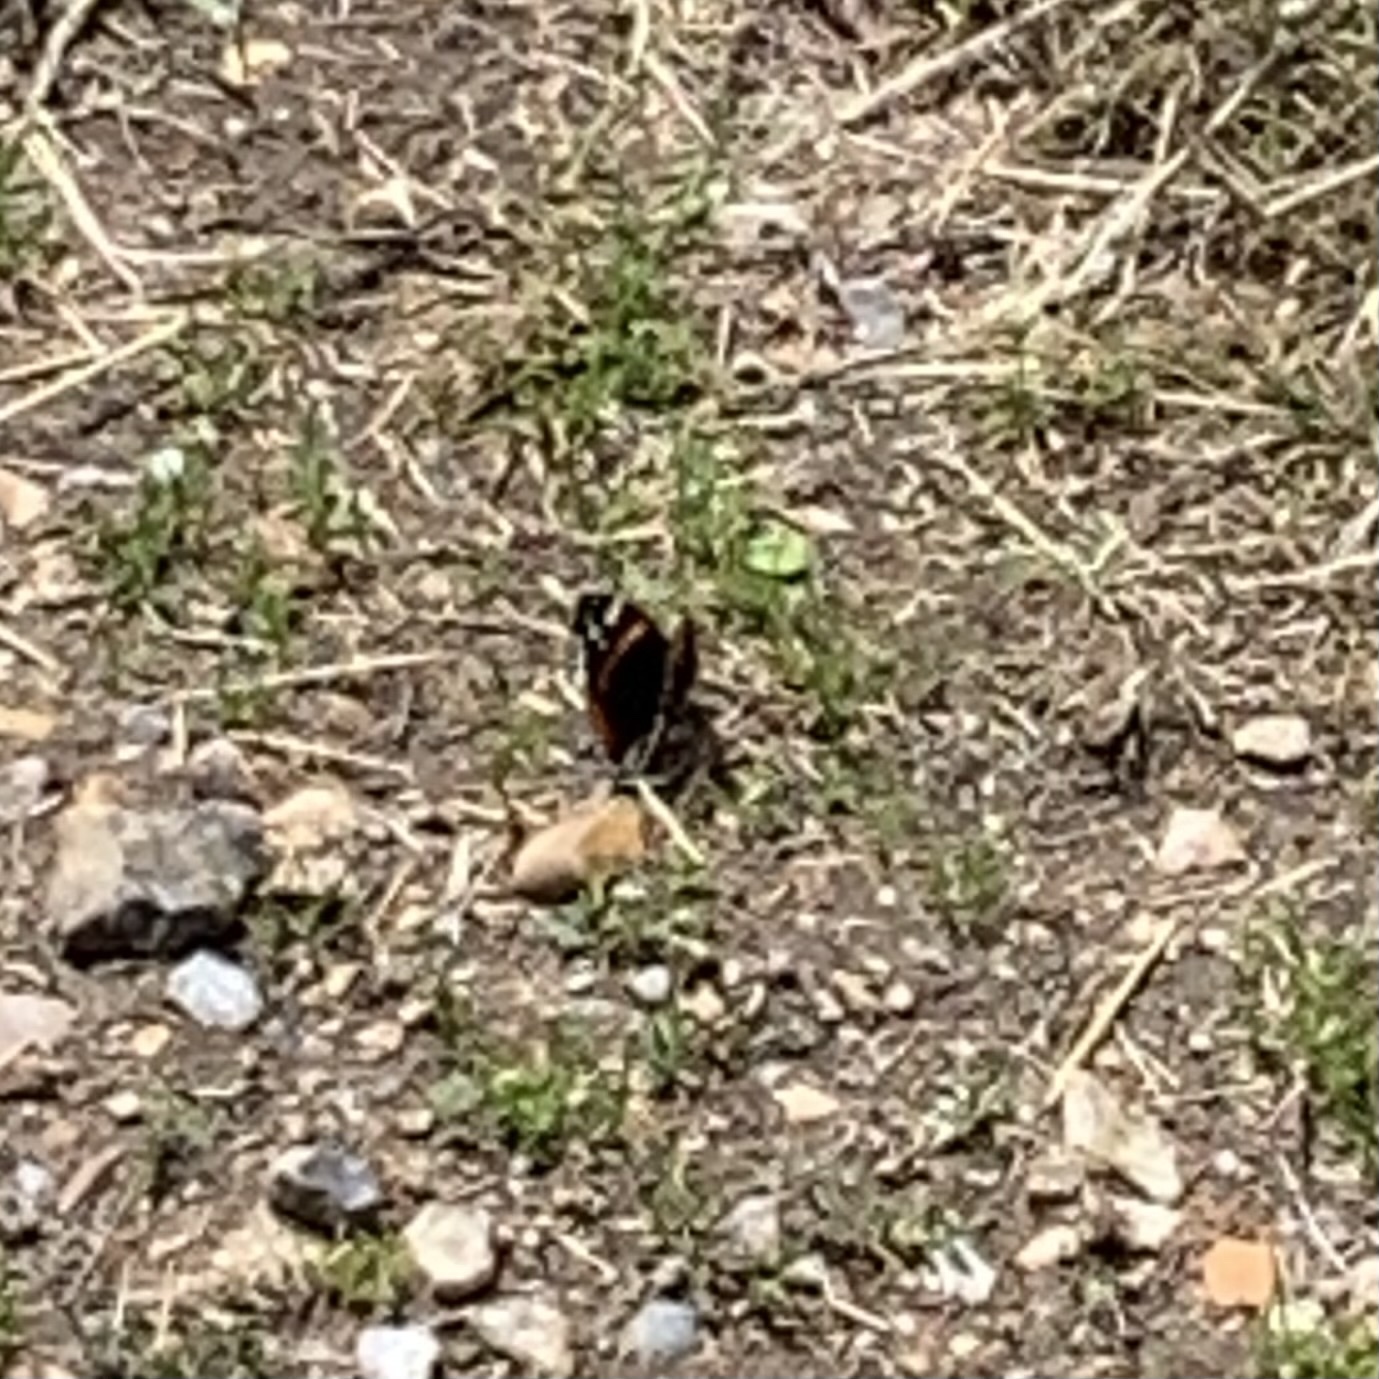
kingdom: Animalia
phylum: Arthropoda
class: Insecta
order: Lepidoptera
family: Nymphalidae
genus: Vanessa
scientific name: Vanessa atalanta
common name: Red admiral
